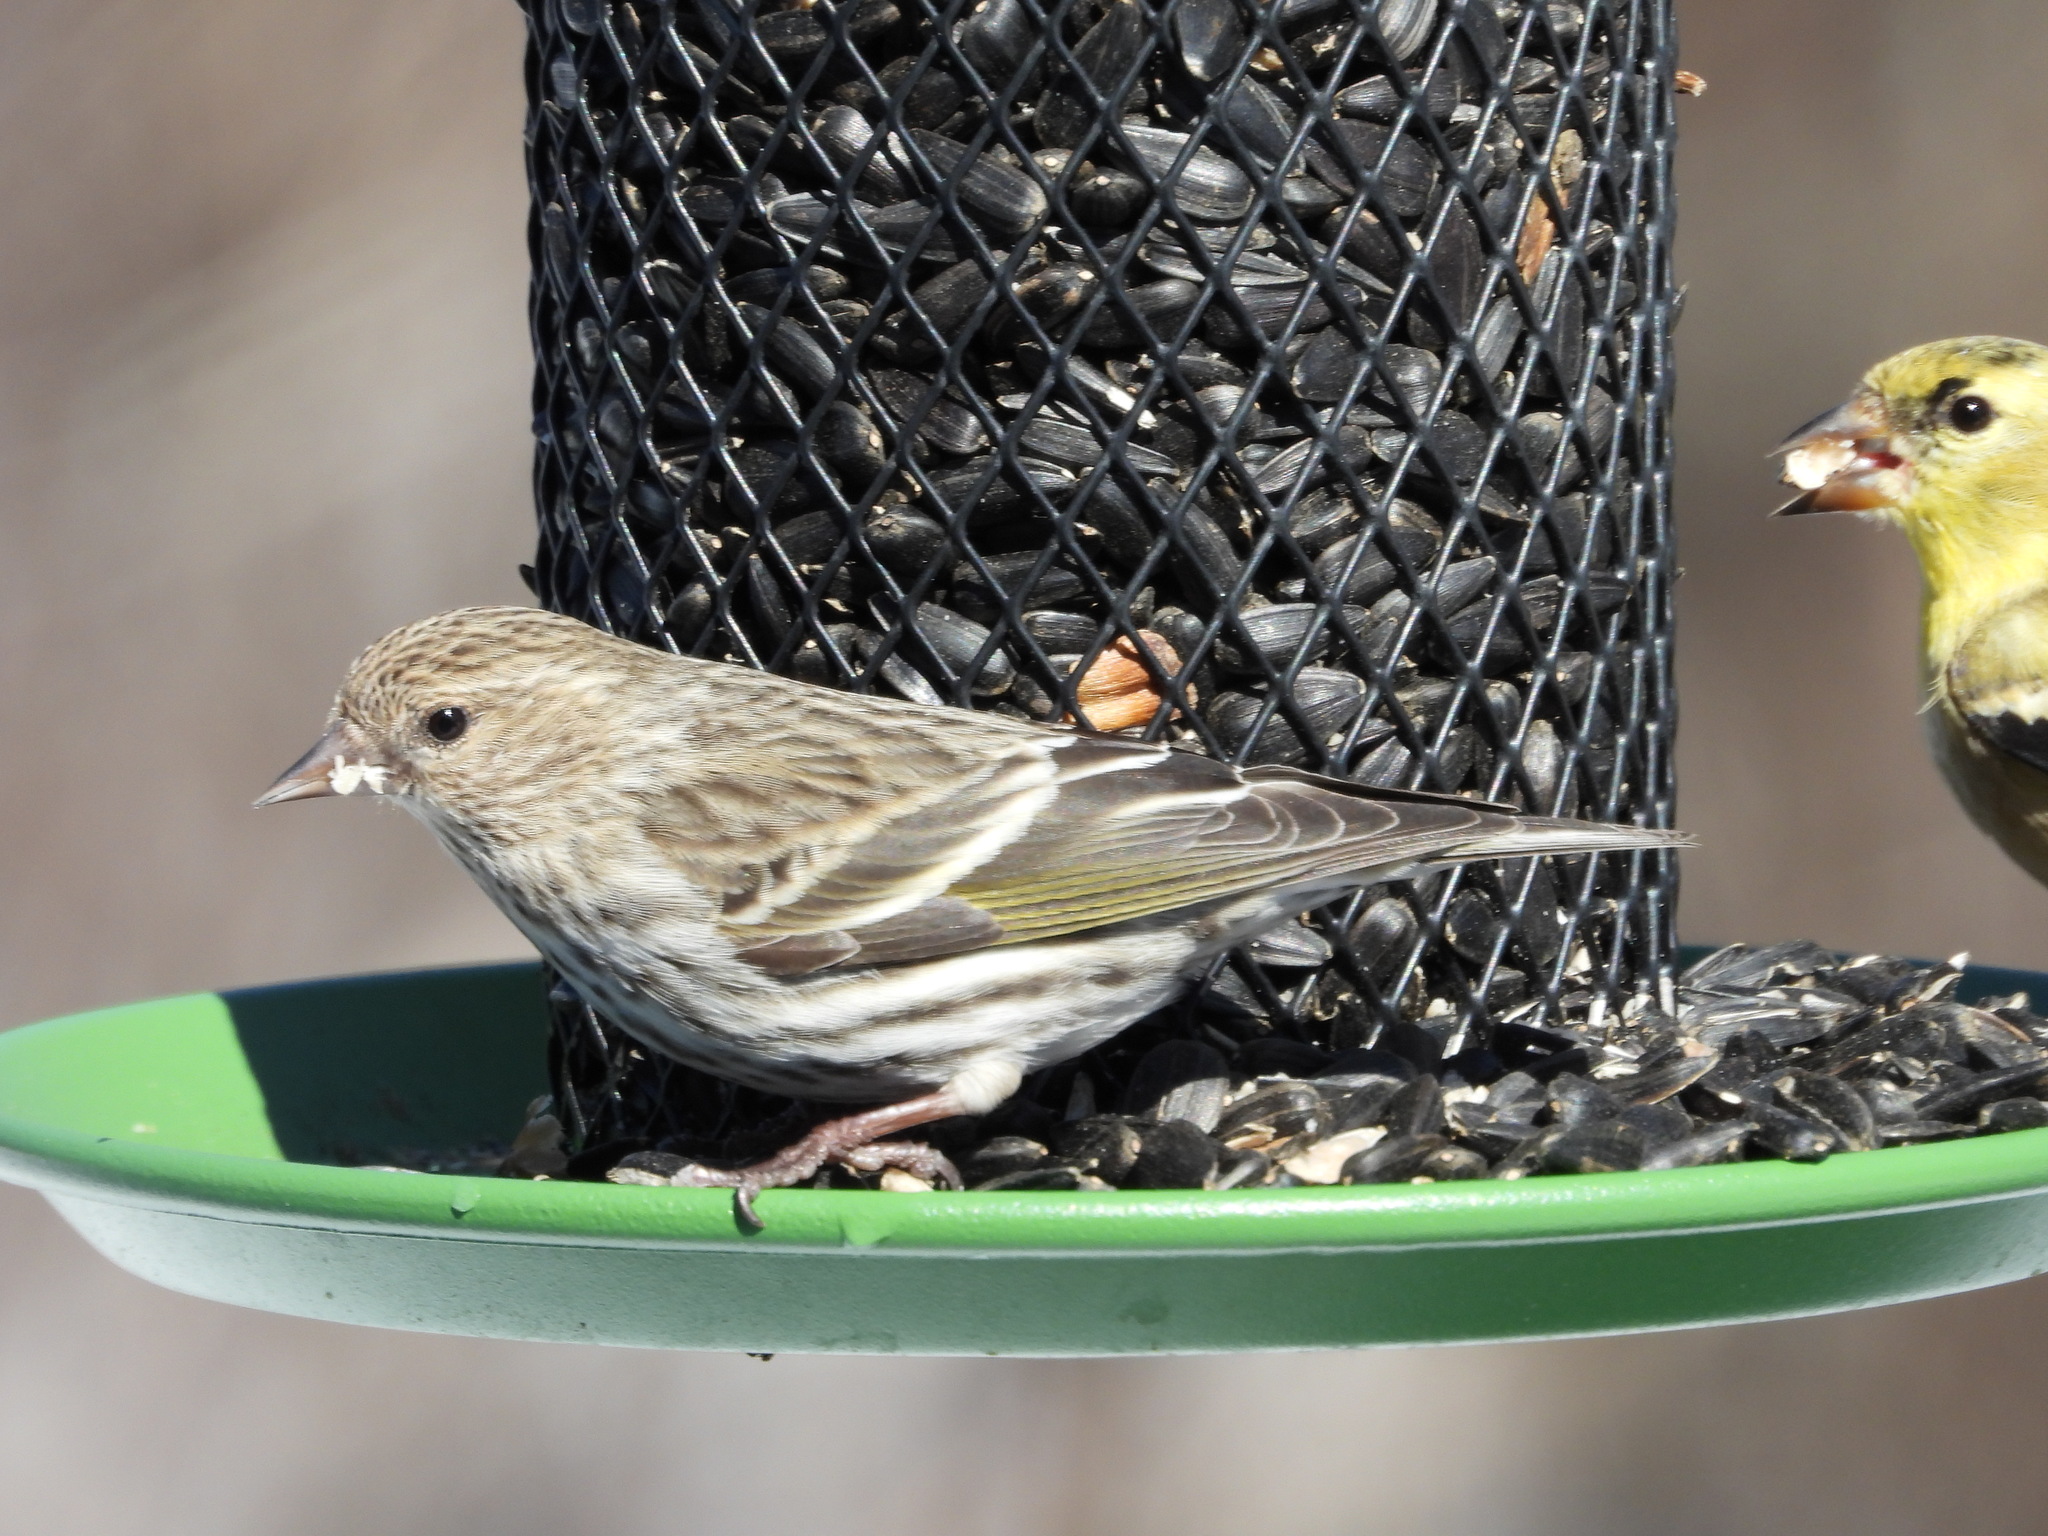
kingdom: Animalia
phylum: Chordata
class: Aves
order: Passeriformes
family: Fringillidae
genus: Spinus
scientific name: Spinus pinus
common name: Pine siskin
